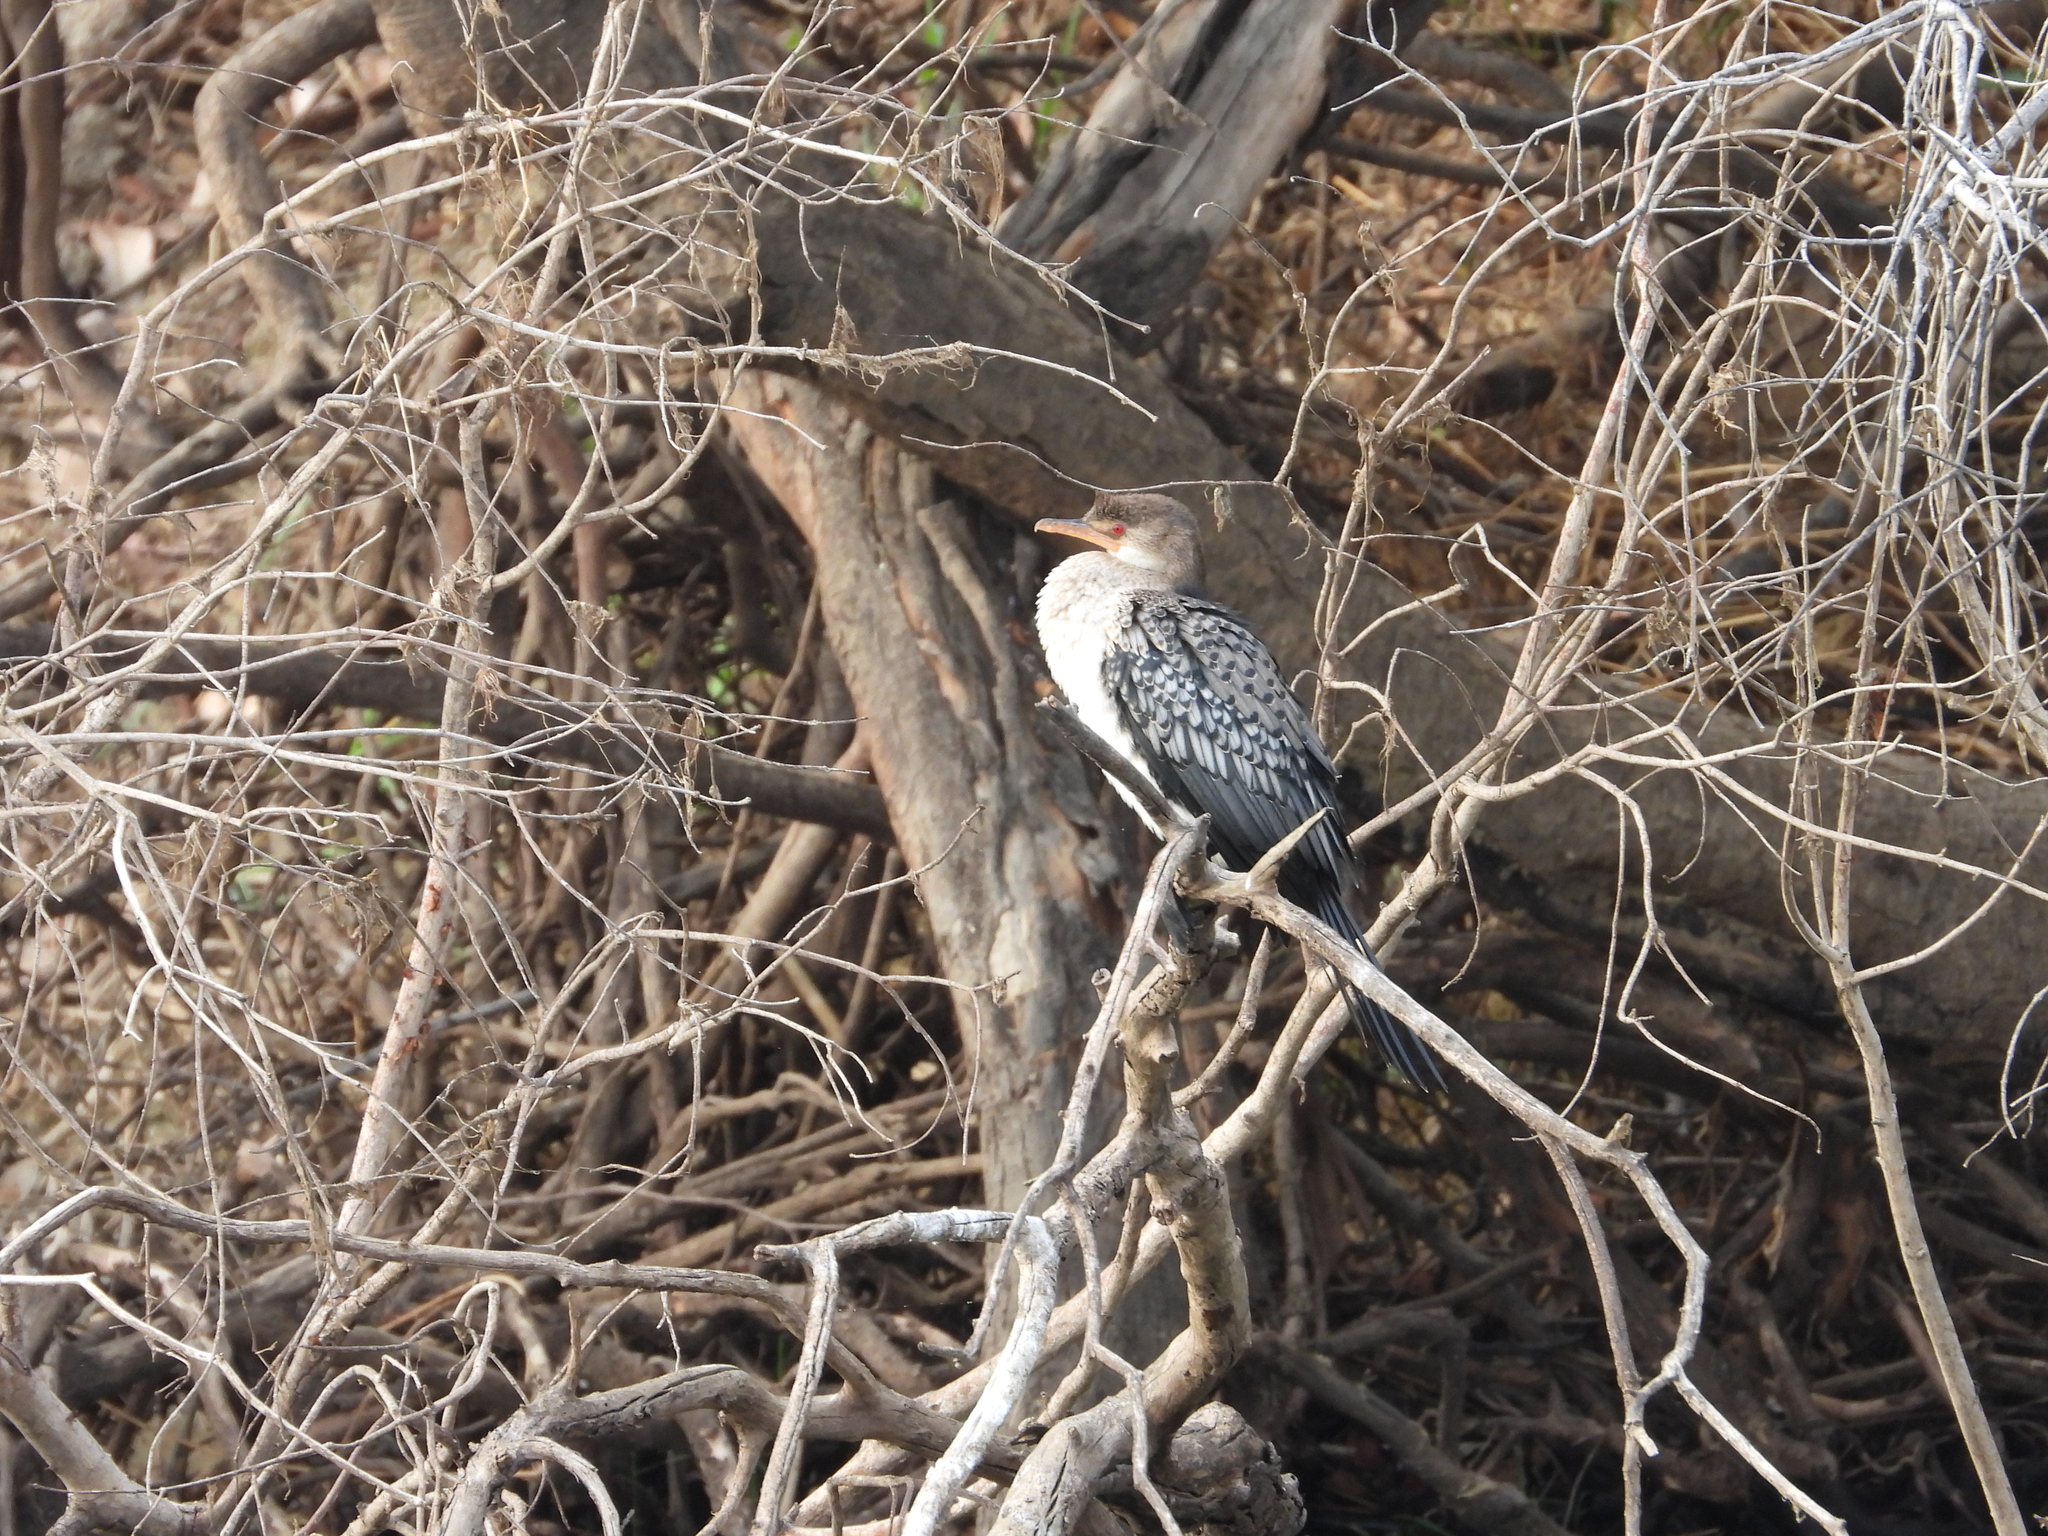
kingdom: Animalia
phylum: Chordata
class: Aves
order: Suliformes
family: Phalacrocoracidae
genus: Microcarbo
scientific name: Microcarbo africanus
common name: Long-tailed cormorant
